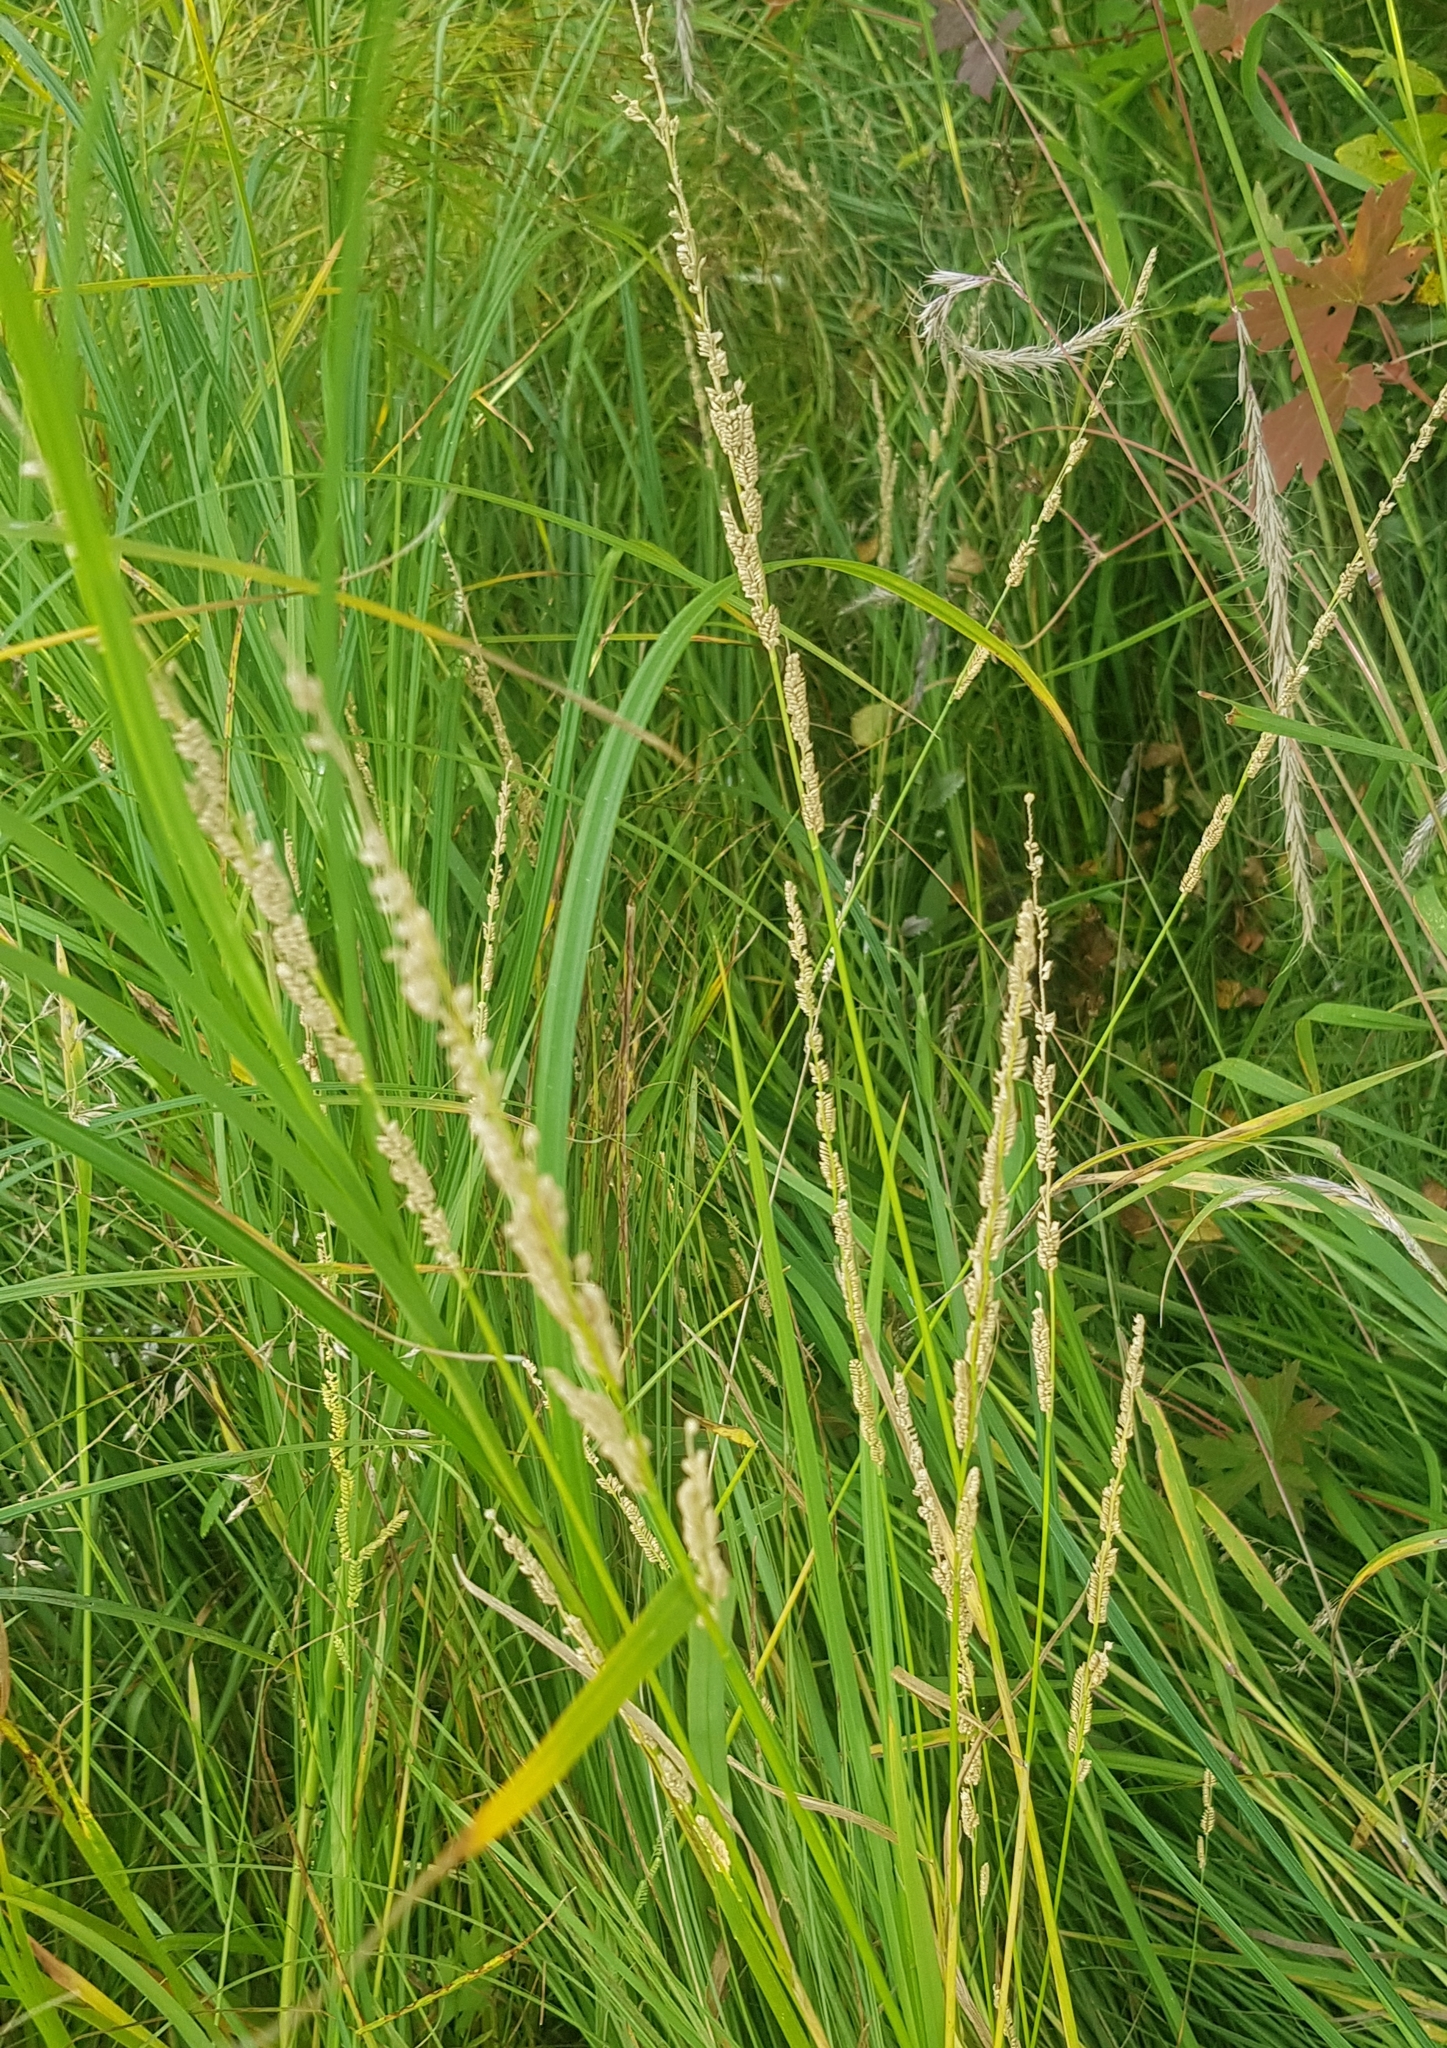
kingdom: Plantae
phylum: Tracheophyta
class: Liliopsida
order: Poales
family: Poaceae
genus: Beckmannia
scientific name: Beckmannia syzigachne
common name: American slough-grass
